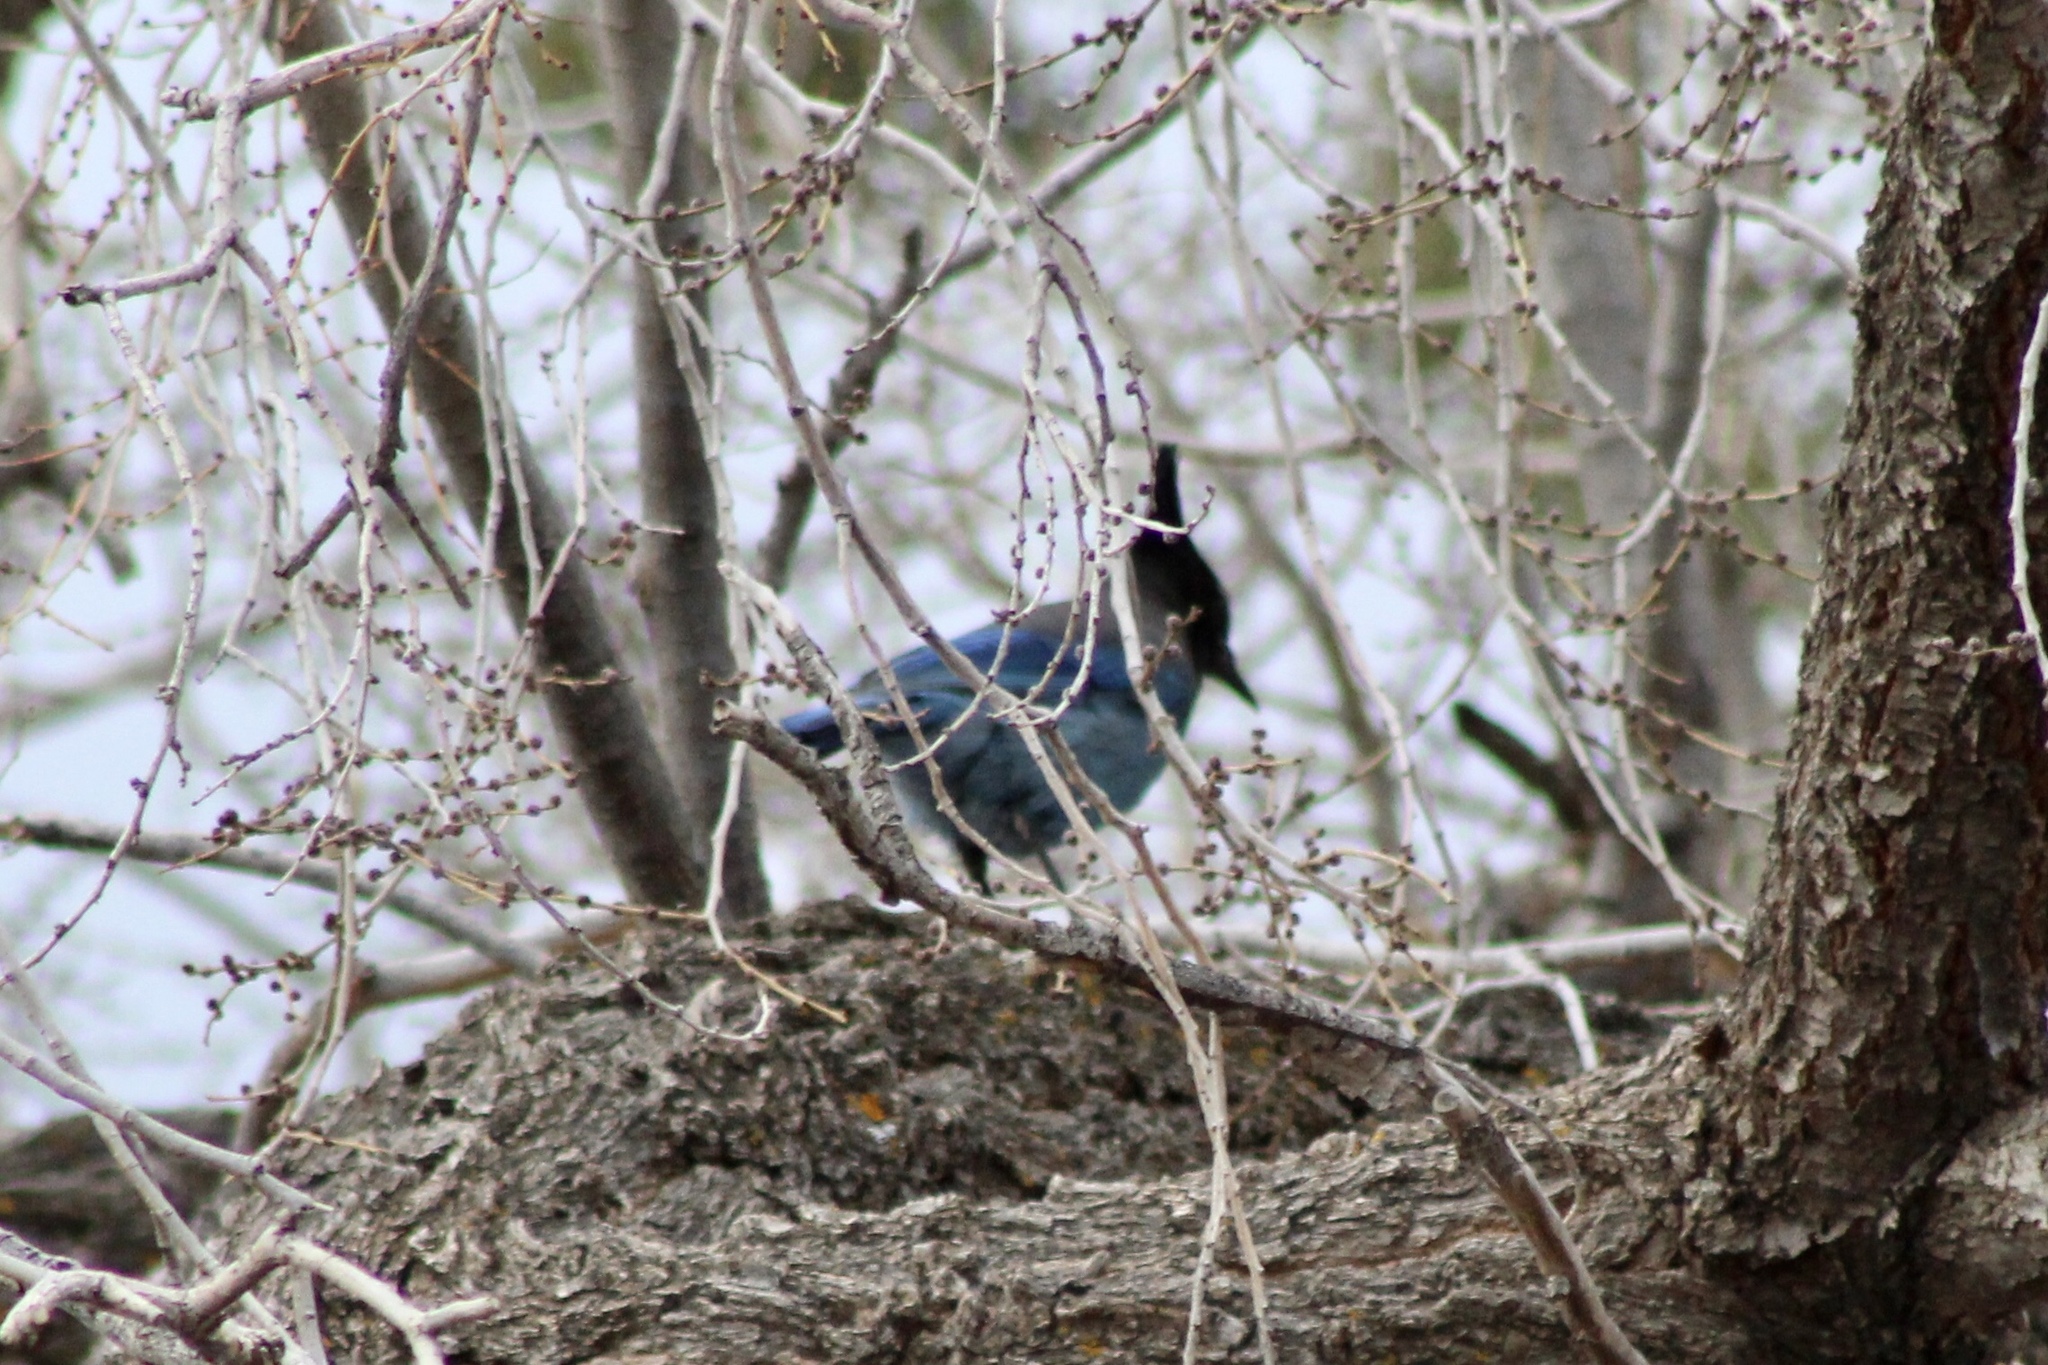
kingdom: Animalia
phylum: Chordata
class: Aves
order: Passeriformes
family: Corvidae
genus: Cyanocitta
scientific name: Cyanocitta stelleri
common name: Steller's jay
